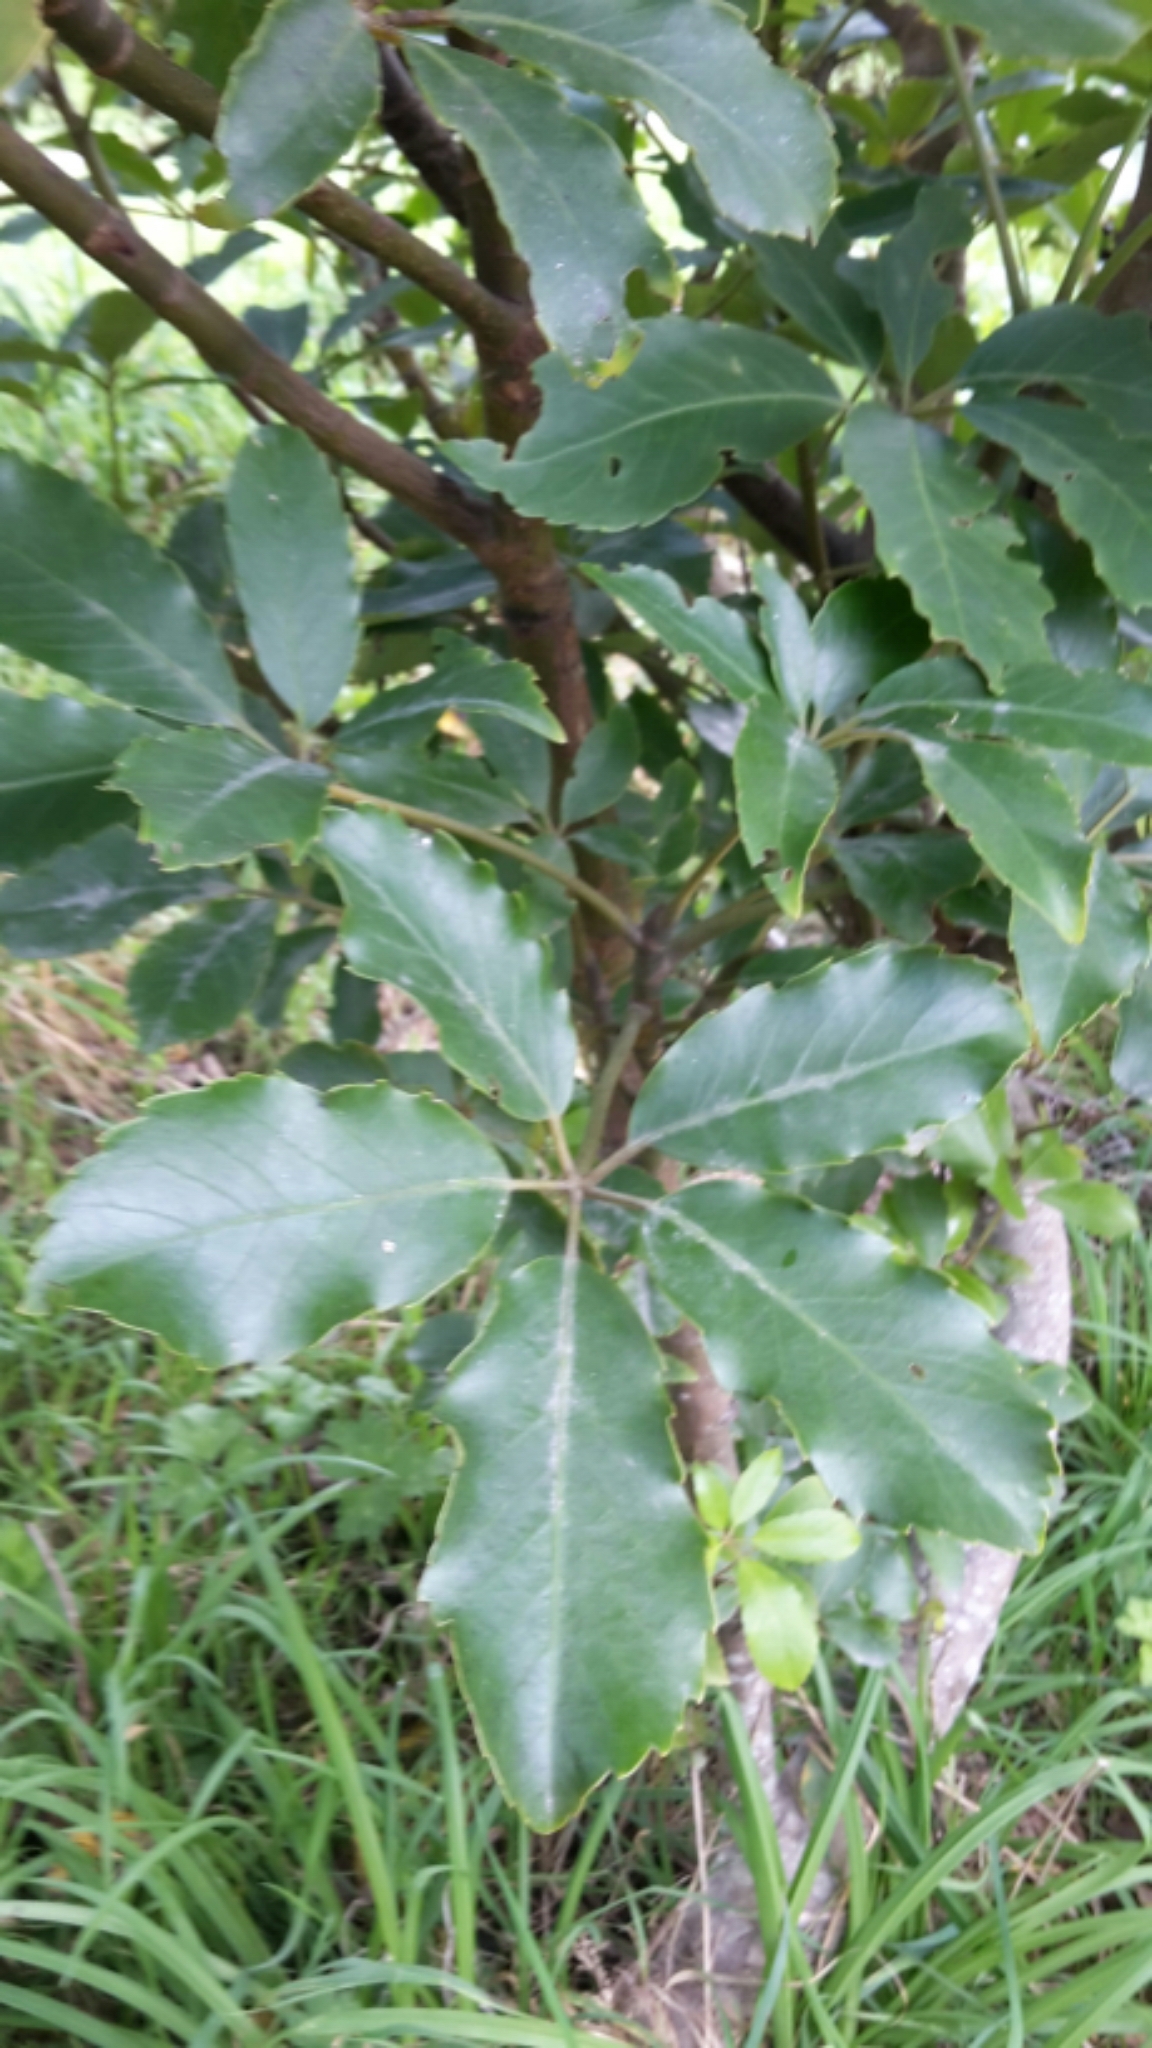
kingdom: Plantae
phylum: Tracheophyta
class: Magnoliopsida
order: Apiales
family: Araliaceae
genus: Neopanax
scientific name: Neopanax arboreus
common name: Five-fingers
